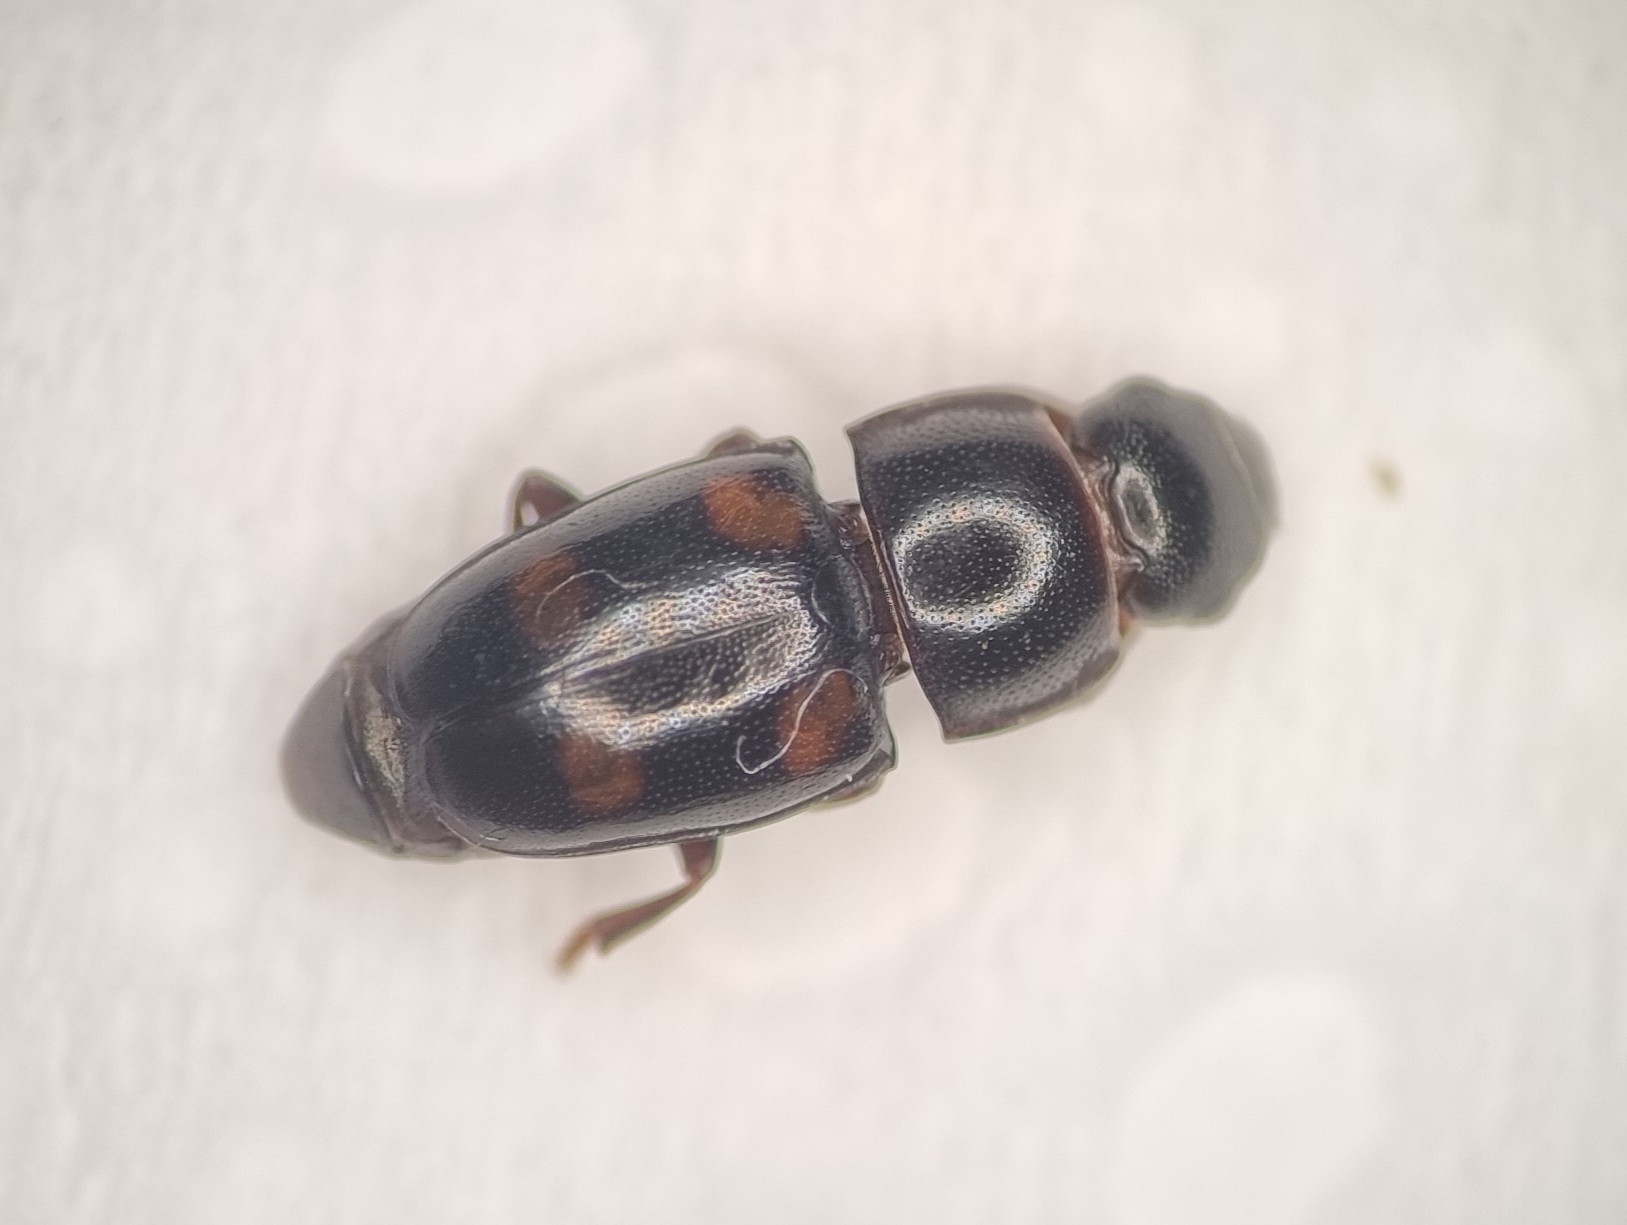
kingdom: Animalia
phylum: Arthropoda
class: Insecta
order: Coleoptera
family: Nitidulidae
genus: Glischrochilus
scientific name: Glischrochilus hortensis
